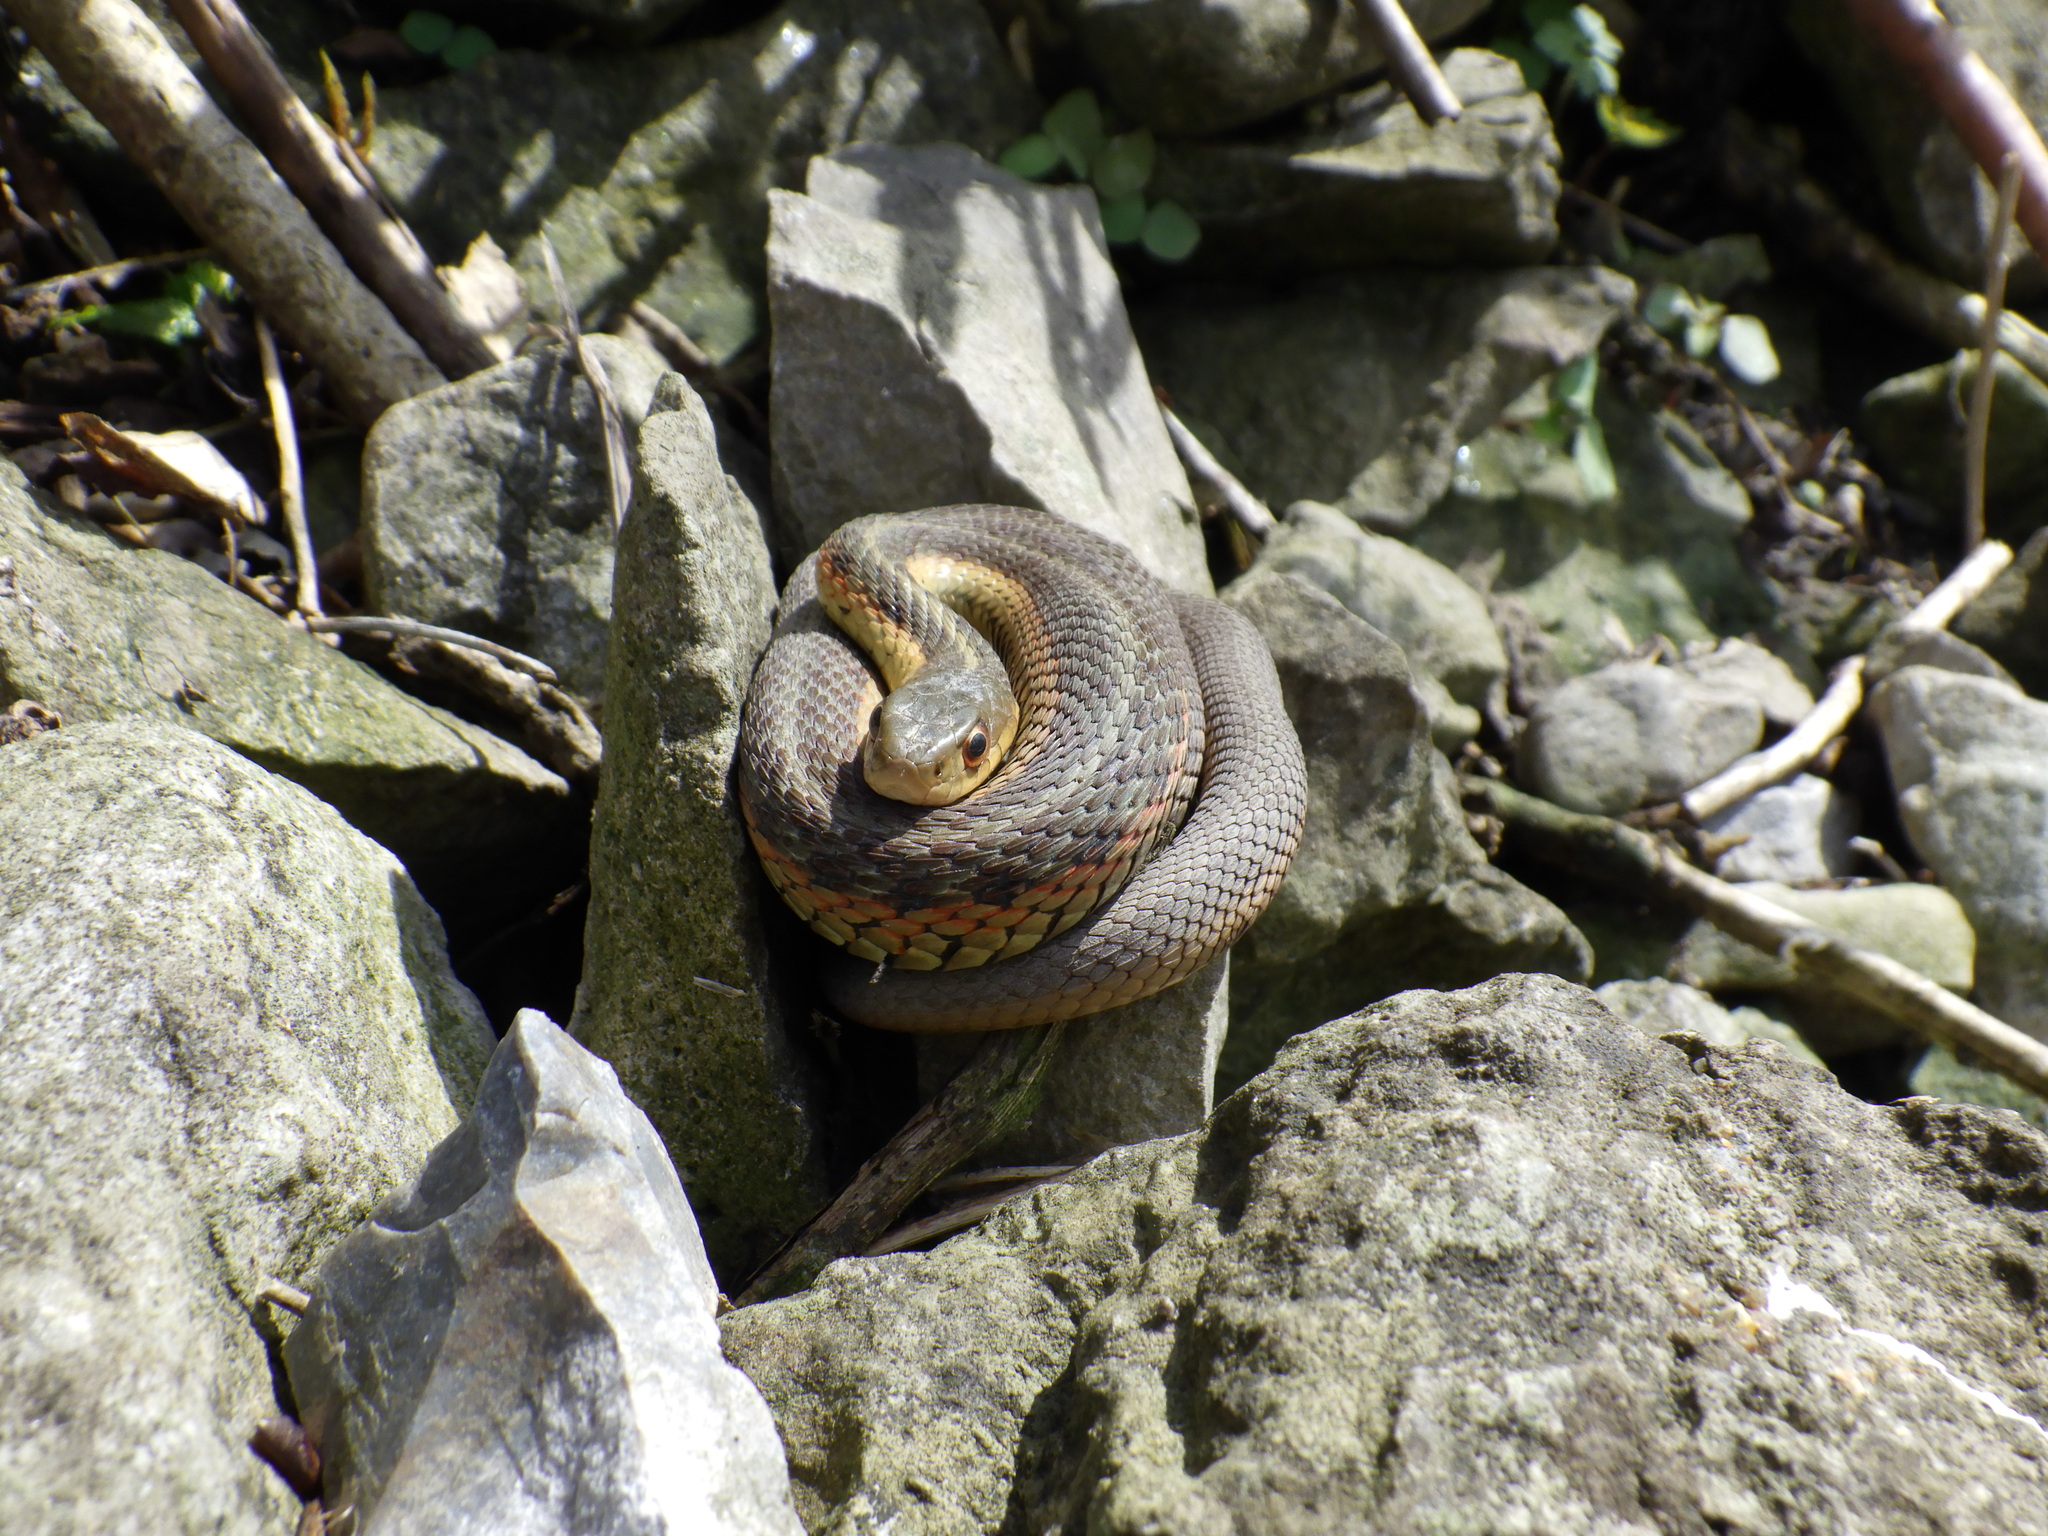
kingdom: Animalia
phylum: Chordata
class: Squamata
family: Colubridae
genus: Thamnophis
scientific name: Thamnophis sirtalis
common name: Common garter snake
